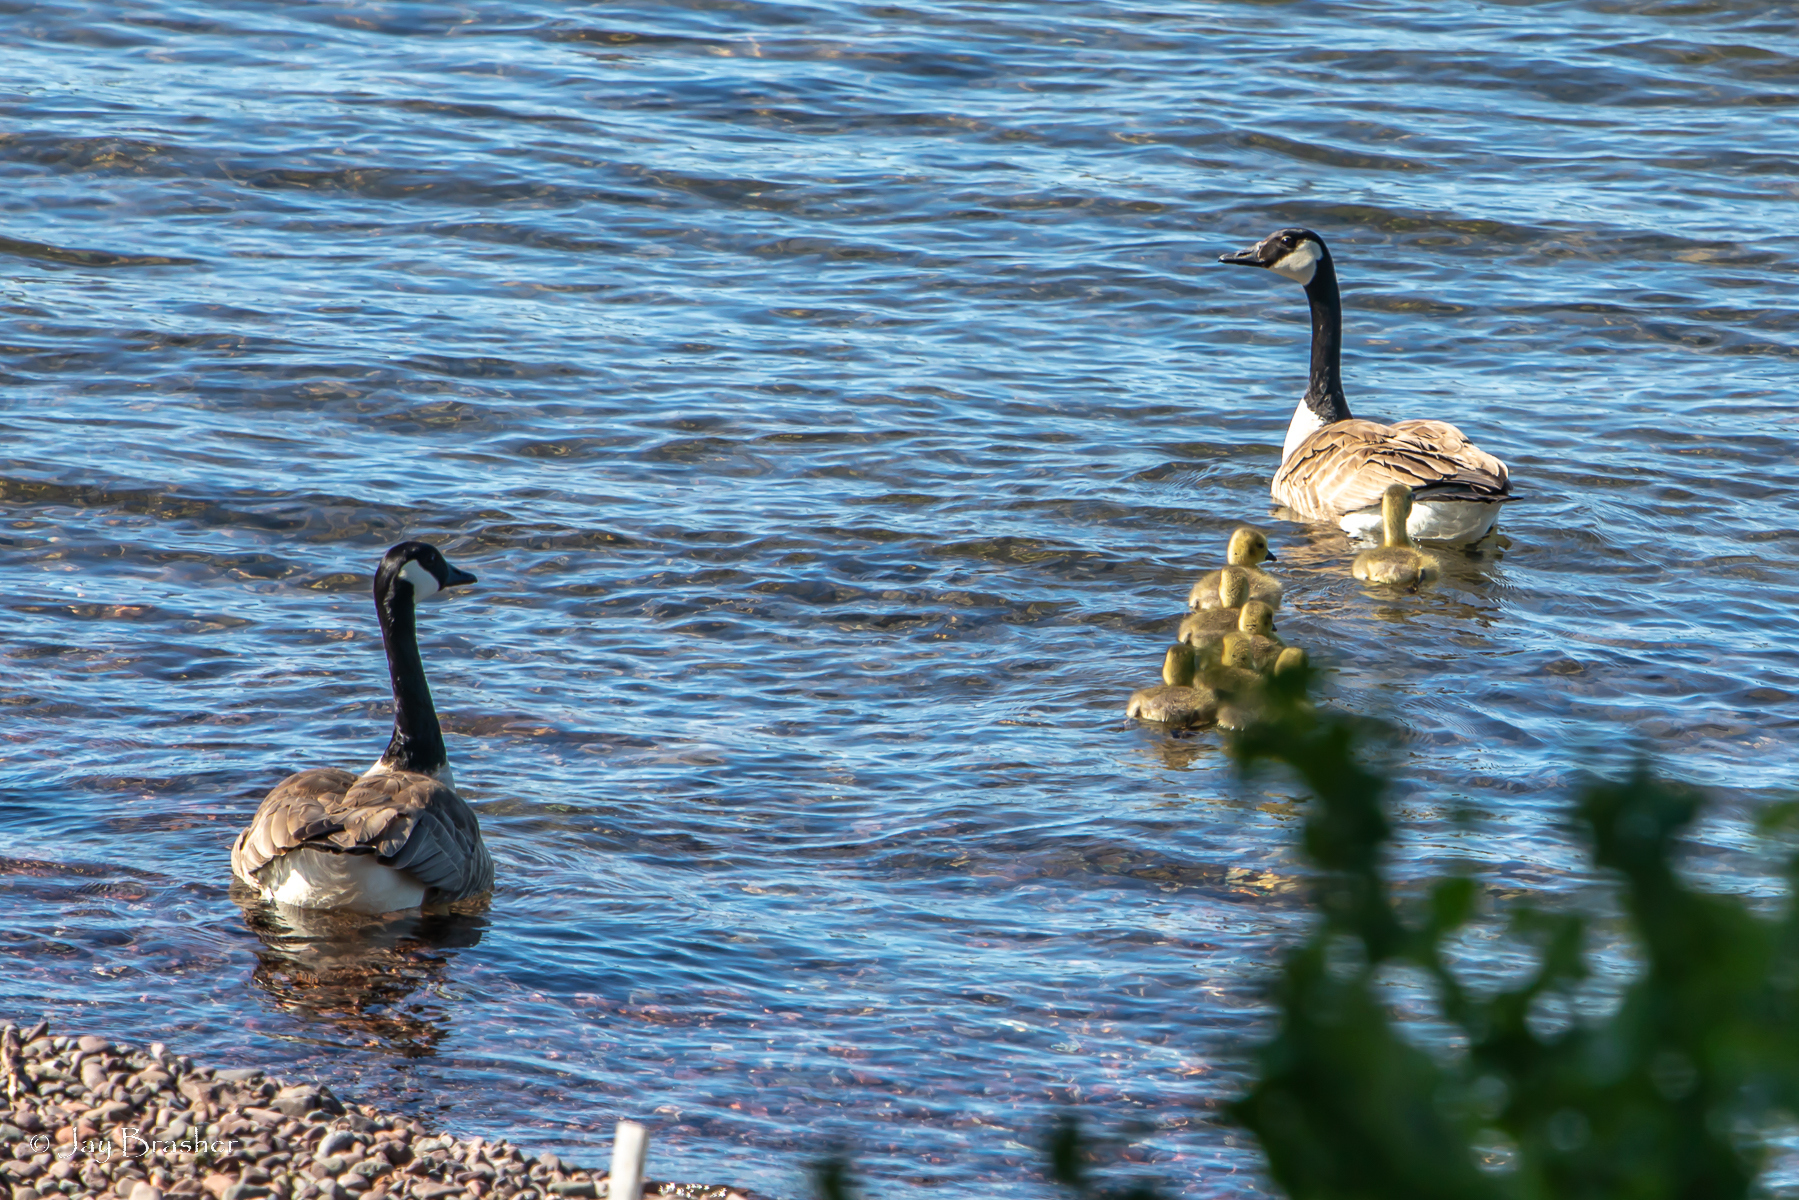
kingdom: Animalia
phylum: Chordata
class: Aves
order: Anseriformes
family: Anatidae
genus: Branta
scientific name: Branta canadensis
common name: Canada goose
